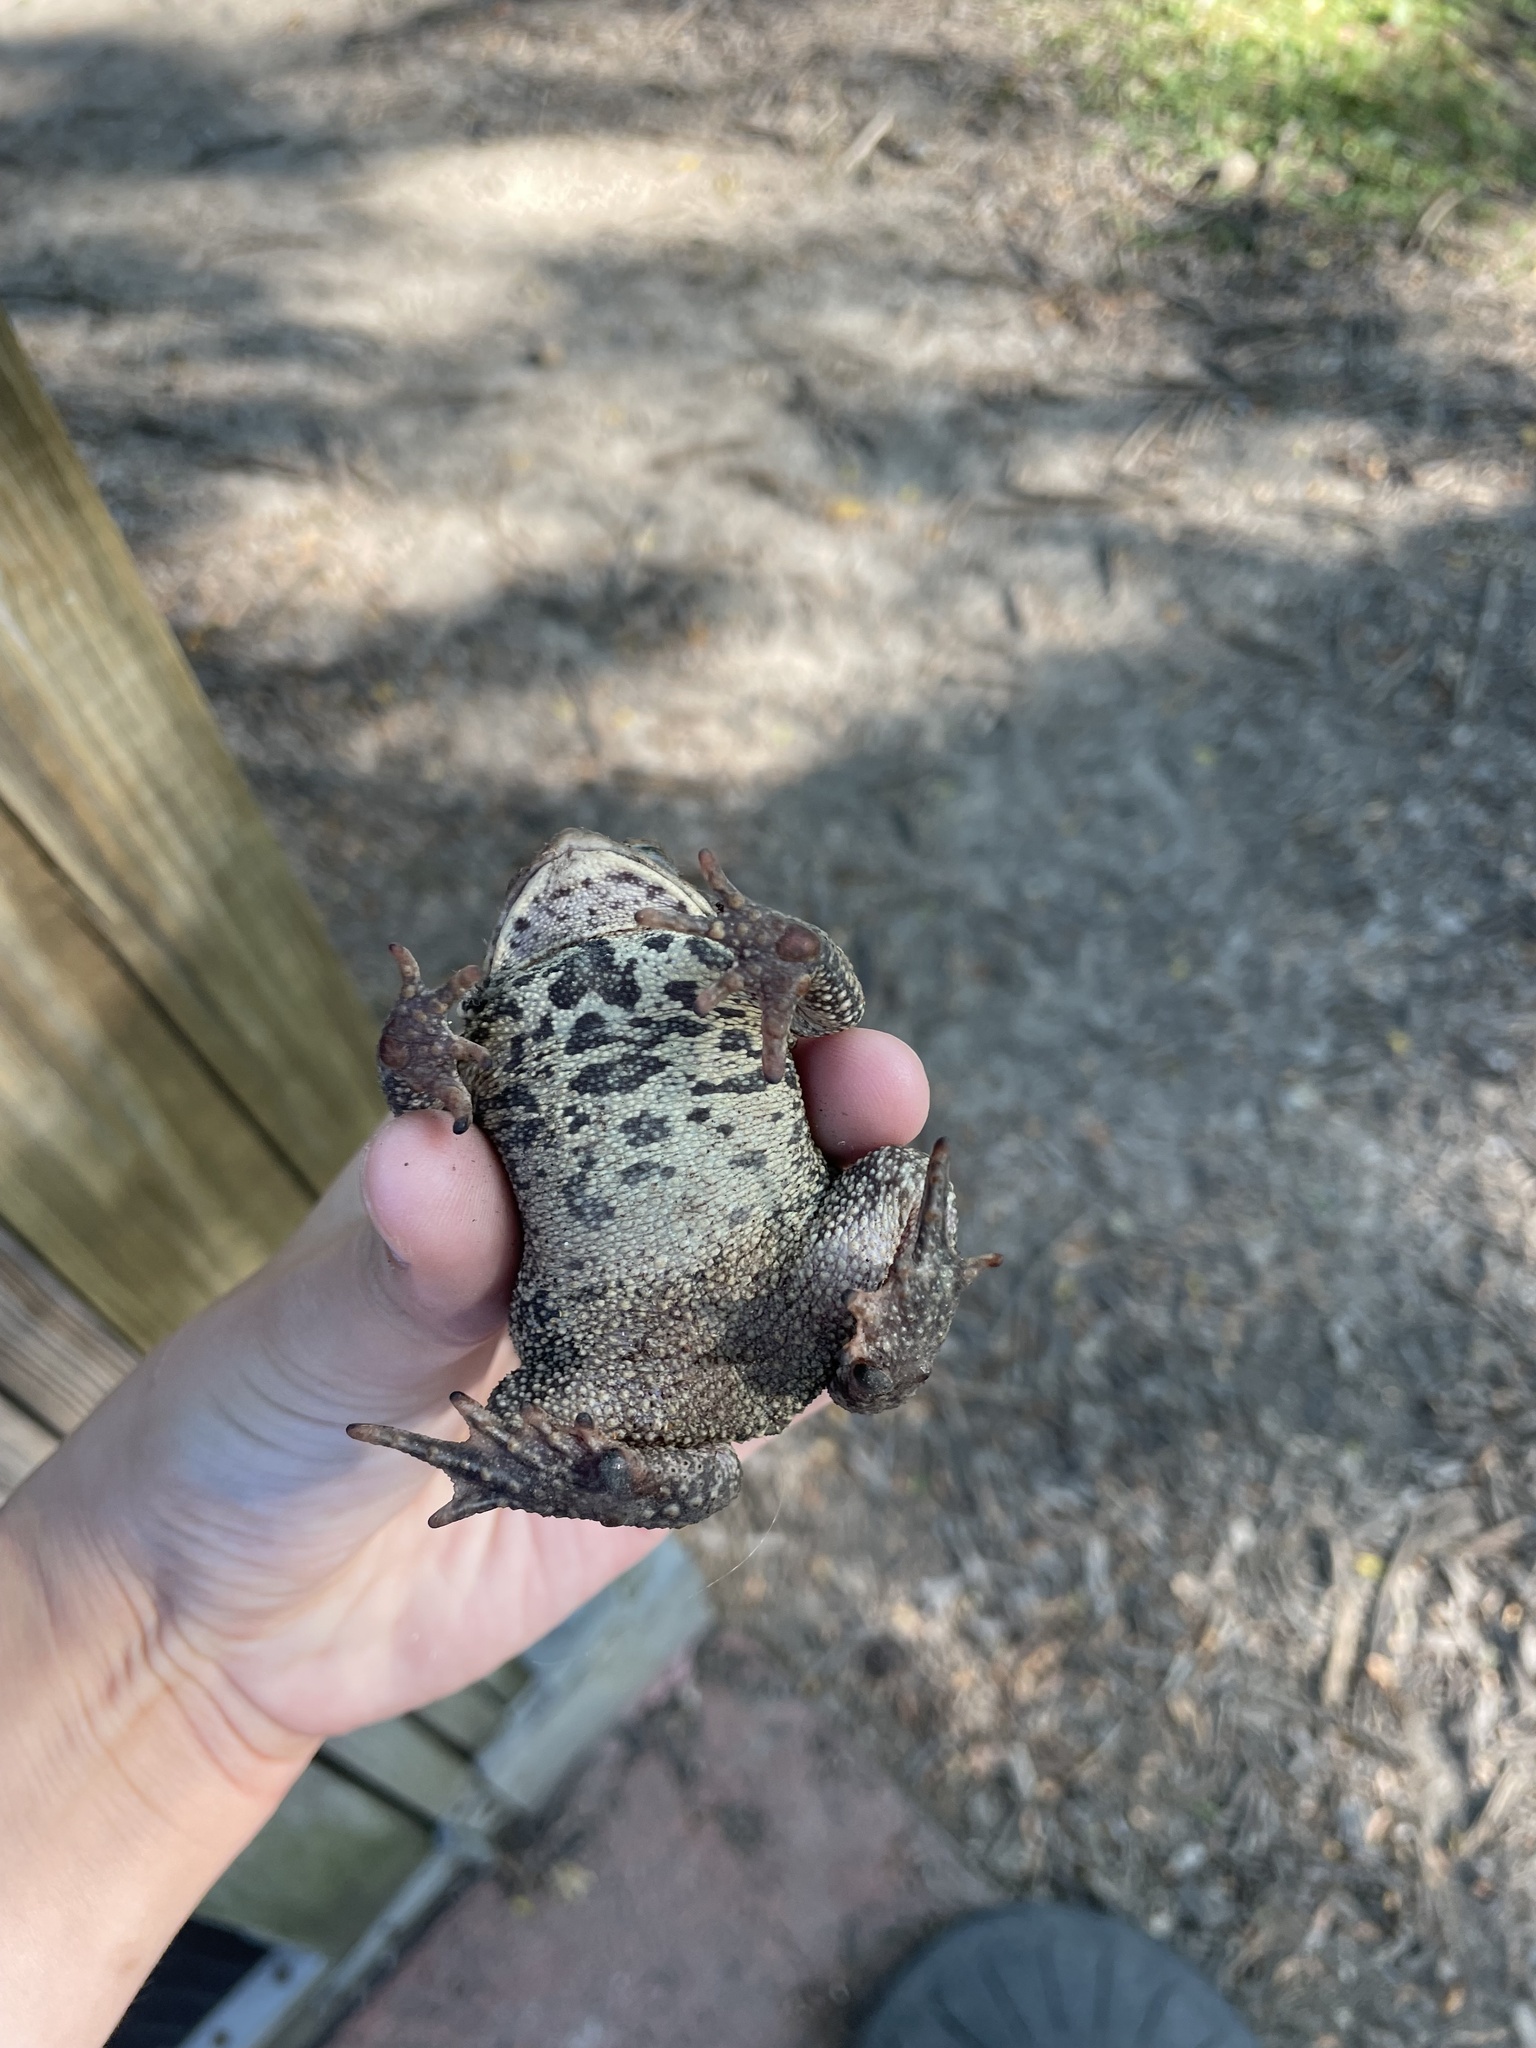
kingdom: Animalia
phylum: Chordata
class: Amphibia
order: Anura
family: Bufonidae
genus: Anaxyrus
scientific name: Anaxyrus americanus
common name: American toad
